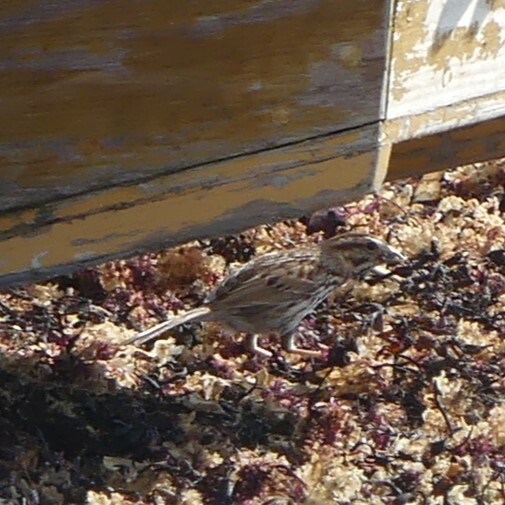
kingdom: Animalia
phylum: Chordata
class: Aves
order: Passeriformes
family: Passerellidae
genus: Melospiza
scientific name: Melospiza melodia
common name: Song sparrow
